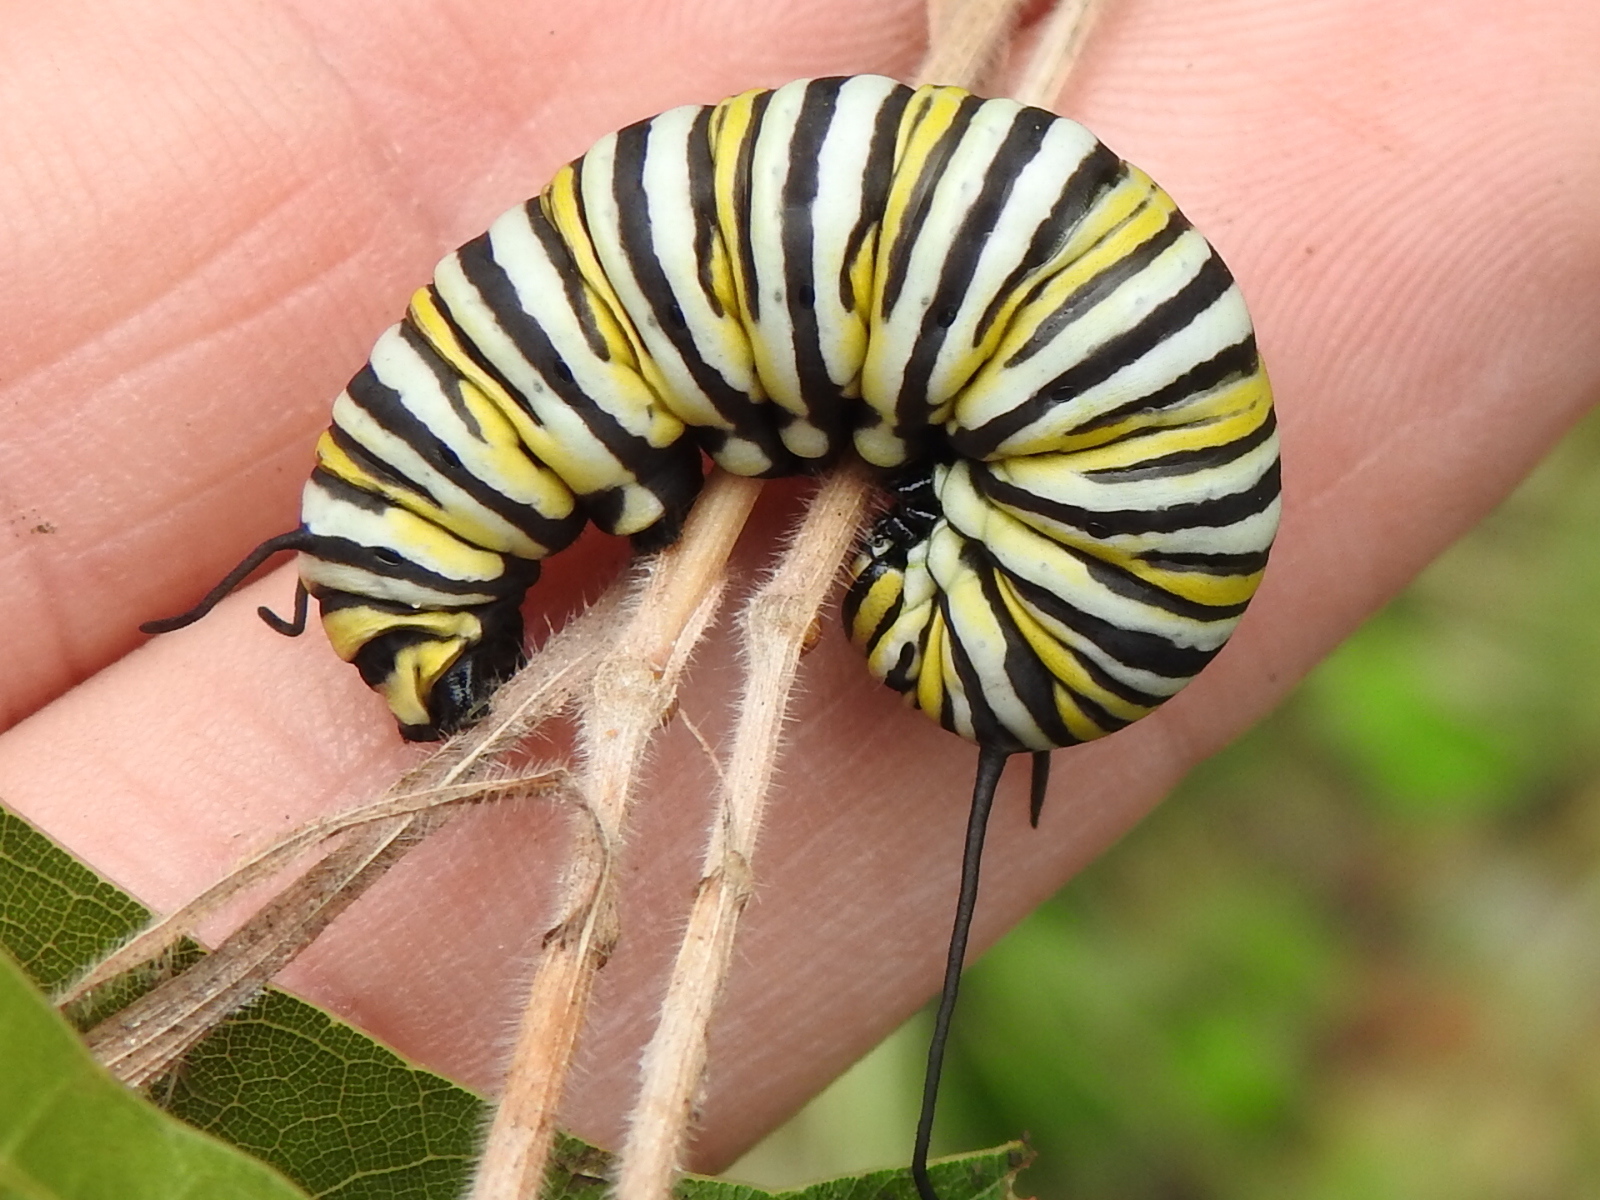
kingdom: Animalia
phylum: Arthropoda
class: Insecta
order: Lepidoptera
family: Nymphalidae
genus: Danaus
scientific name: Danaus plexippus
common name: Monarch
